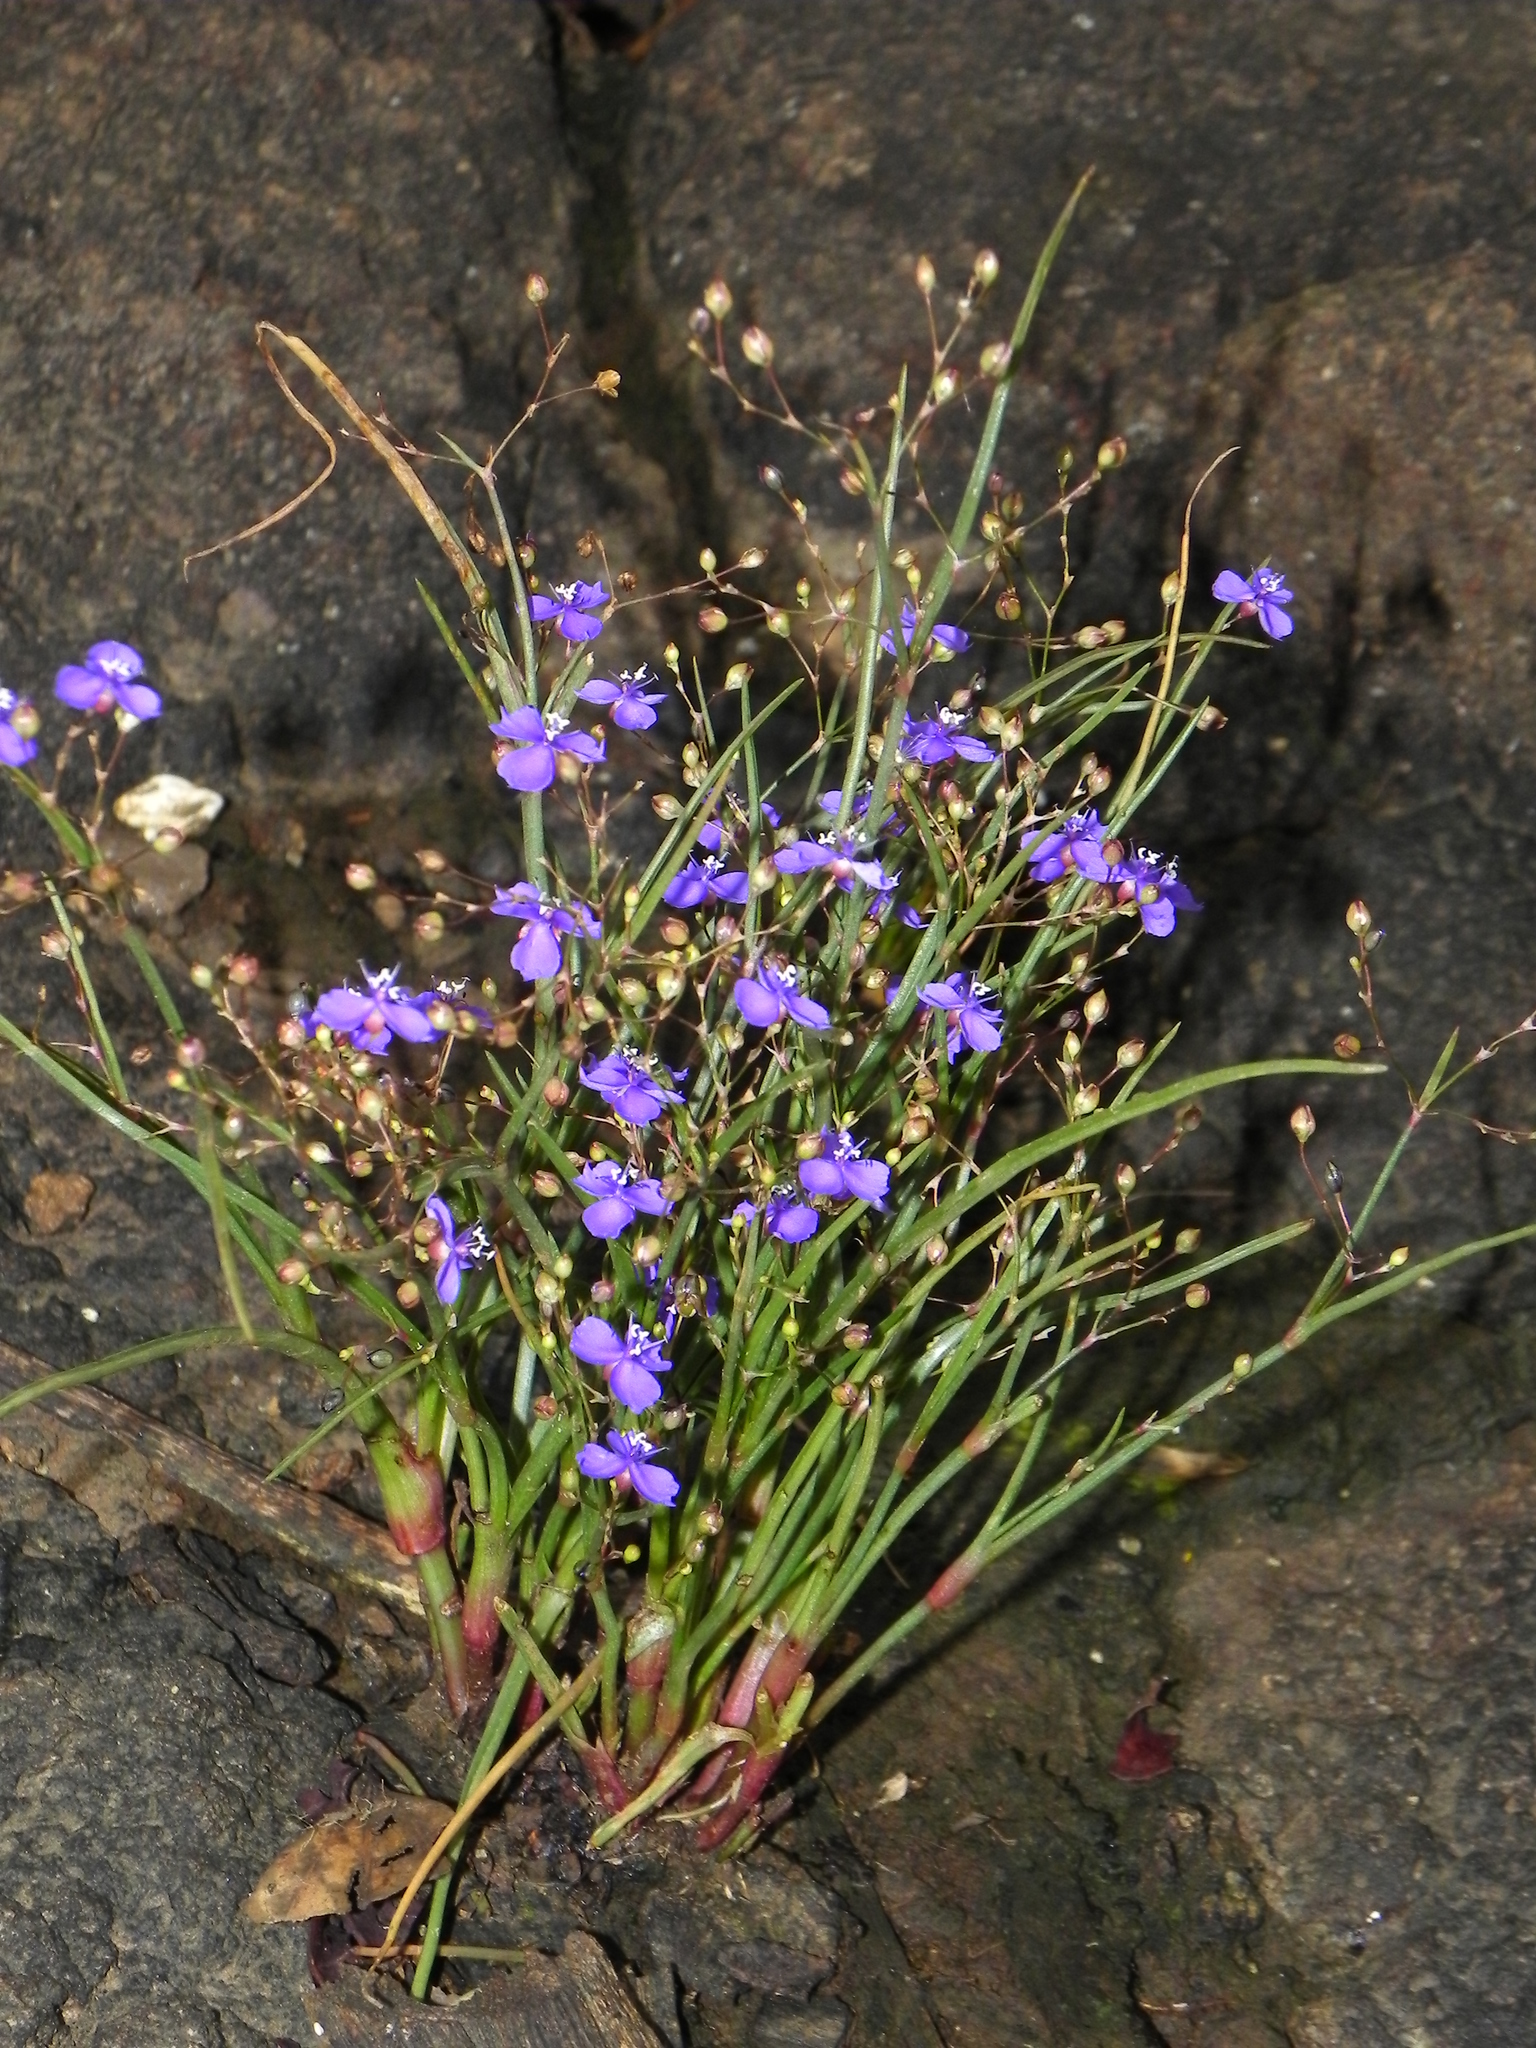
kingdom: Plantae
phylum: Tracheophyta
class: Liliopsida
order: Commelinales
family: Commelinaceae
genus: Murdannia
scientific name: Murdannia semiteres
